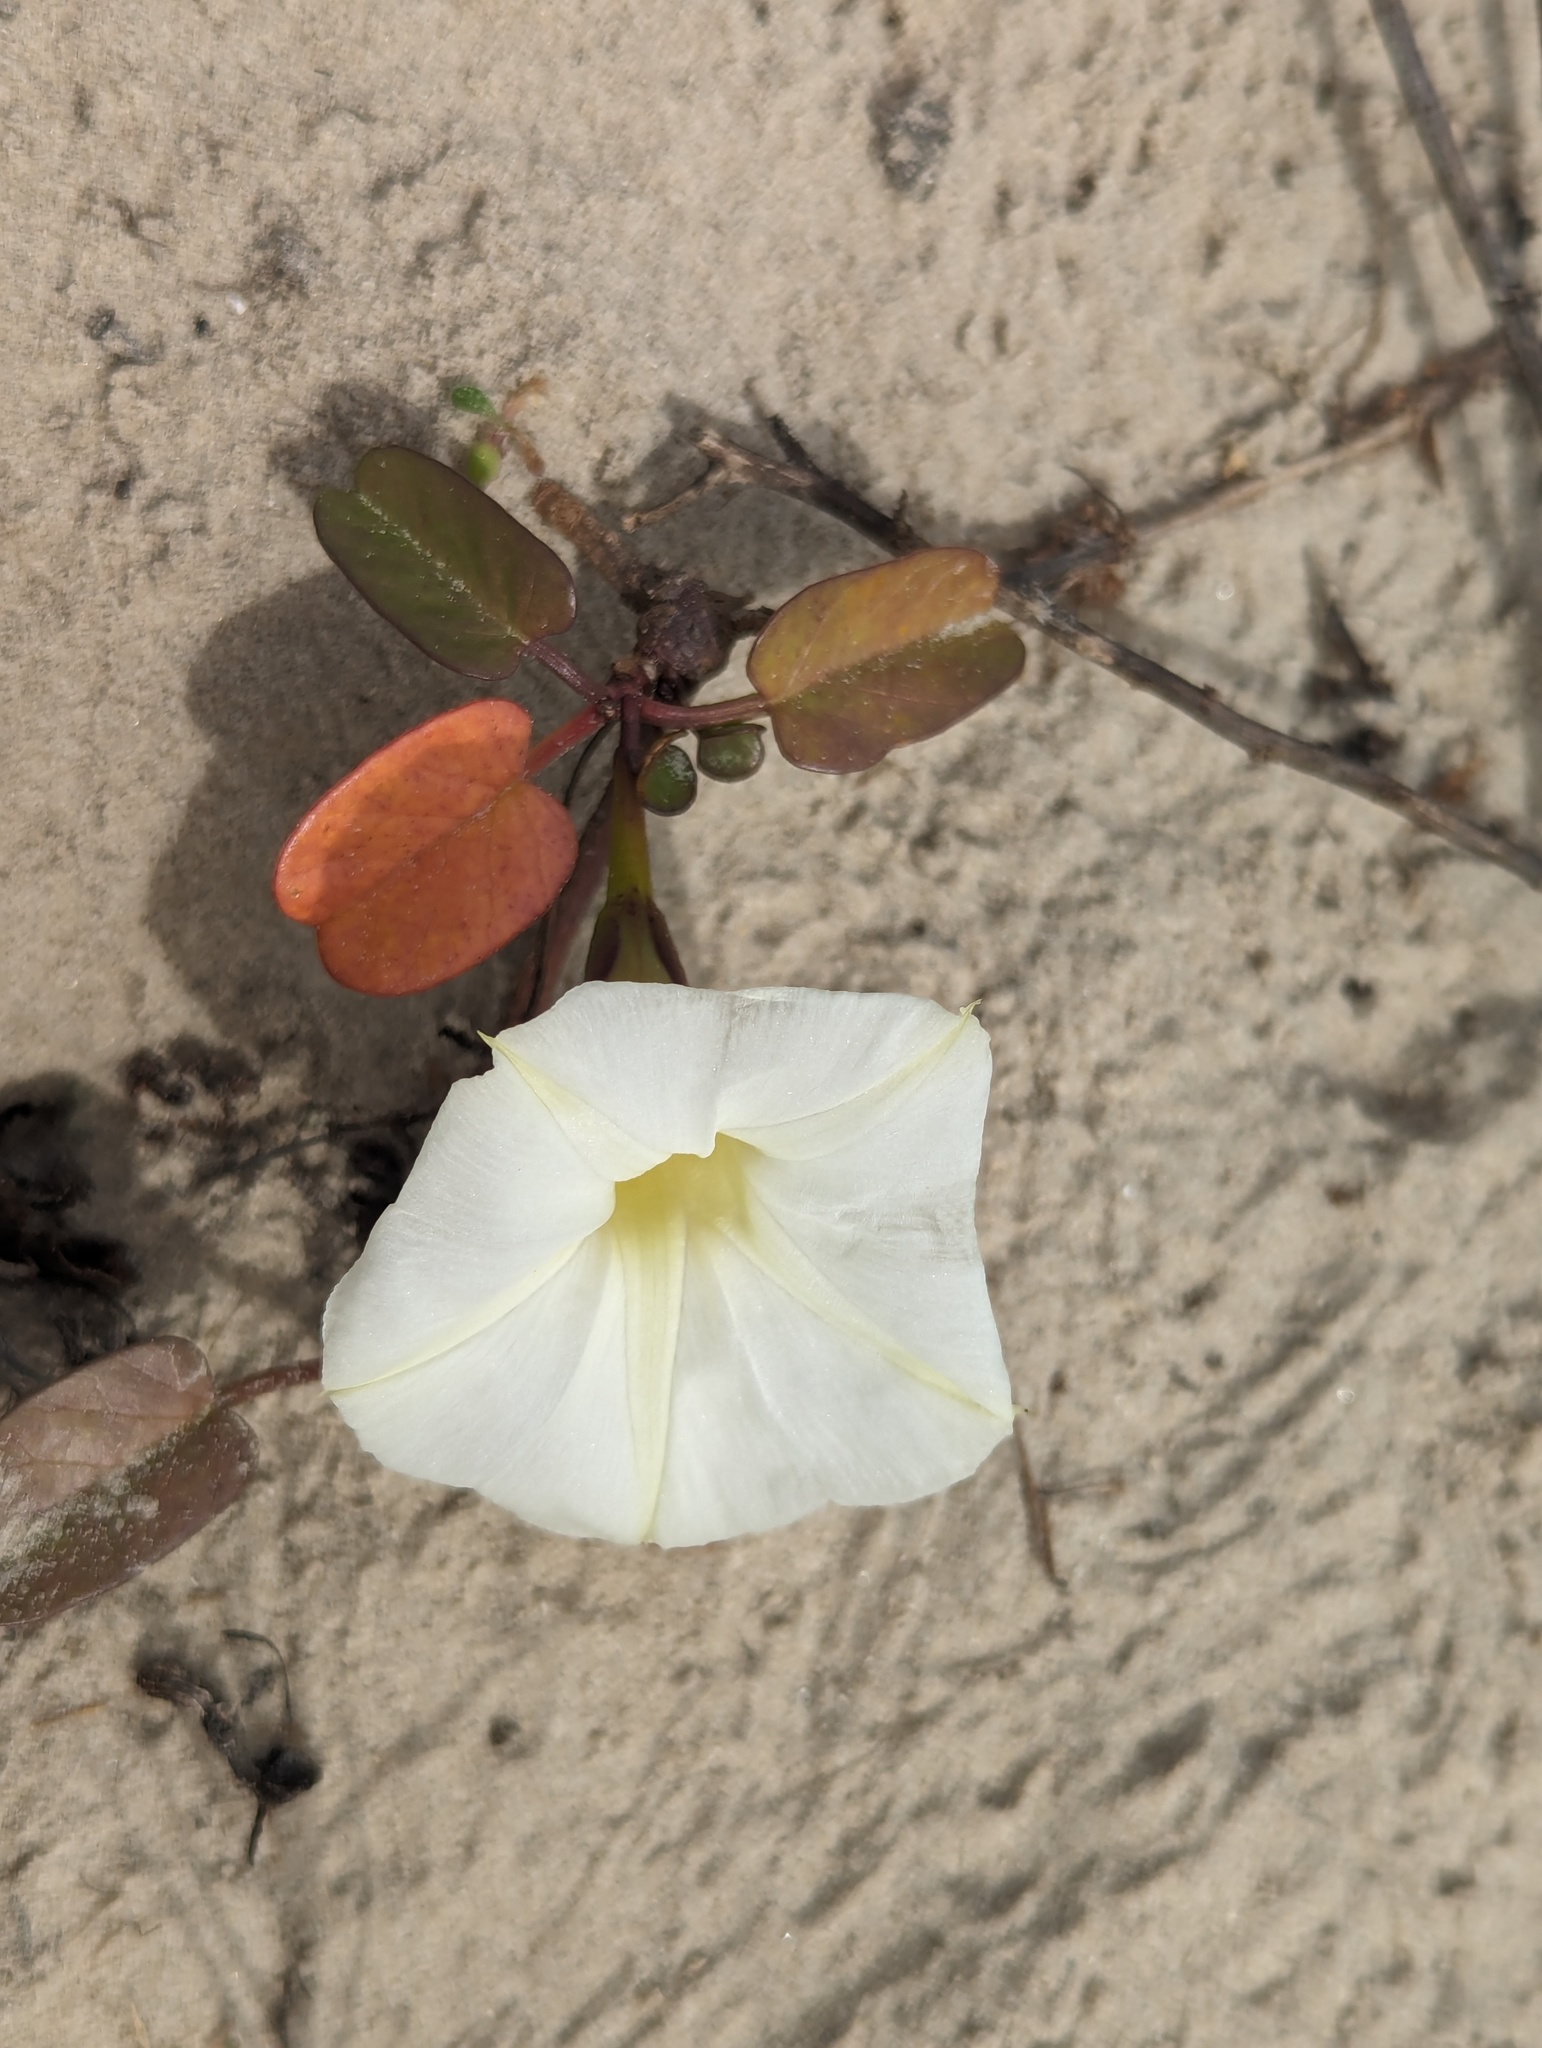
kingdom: Plantae
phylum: Tracheophyta
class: Magnoliopsida
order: Solanales
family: Convolvulaceae
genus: Ipomoea
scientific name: Ipomoea imperati
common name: Fiddle-leaf morning-glory
